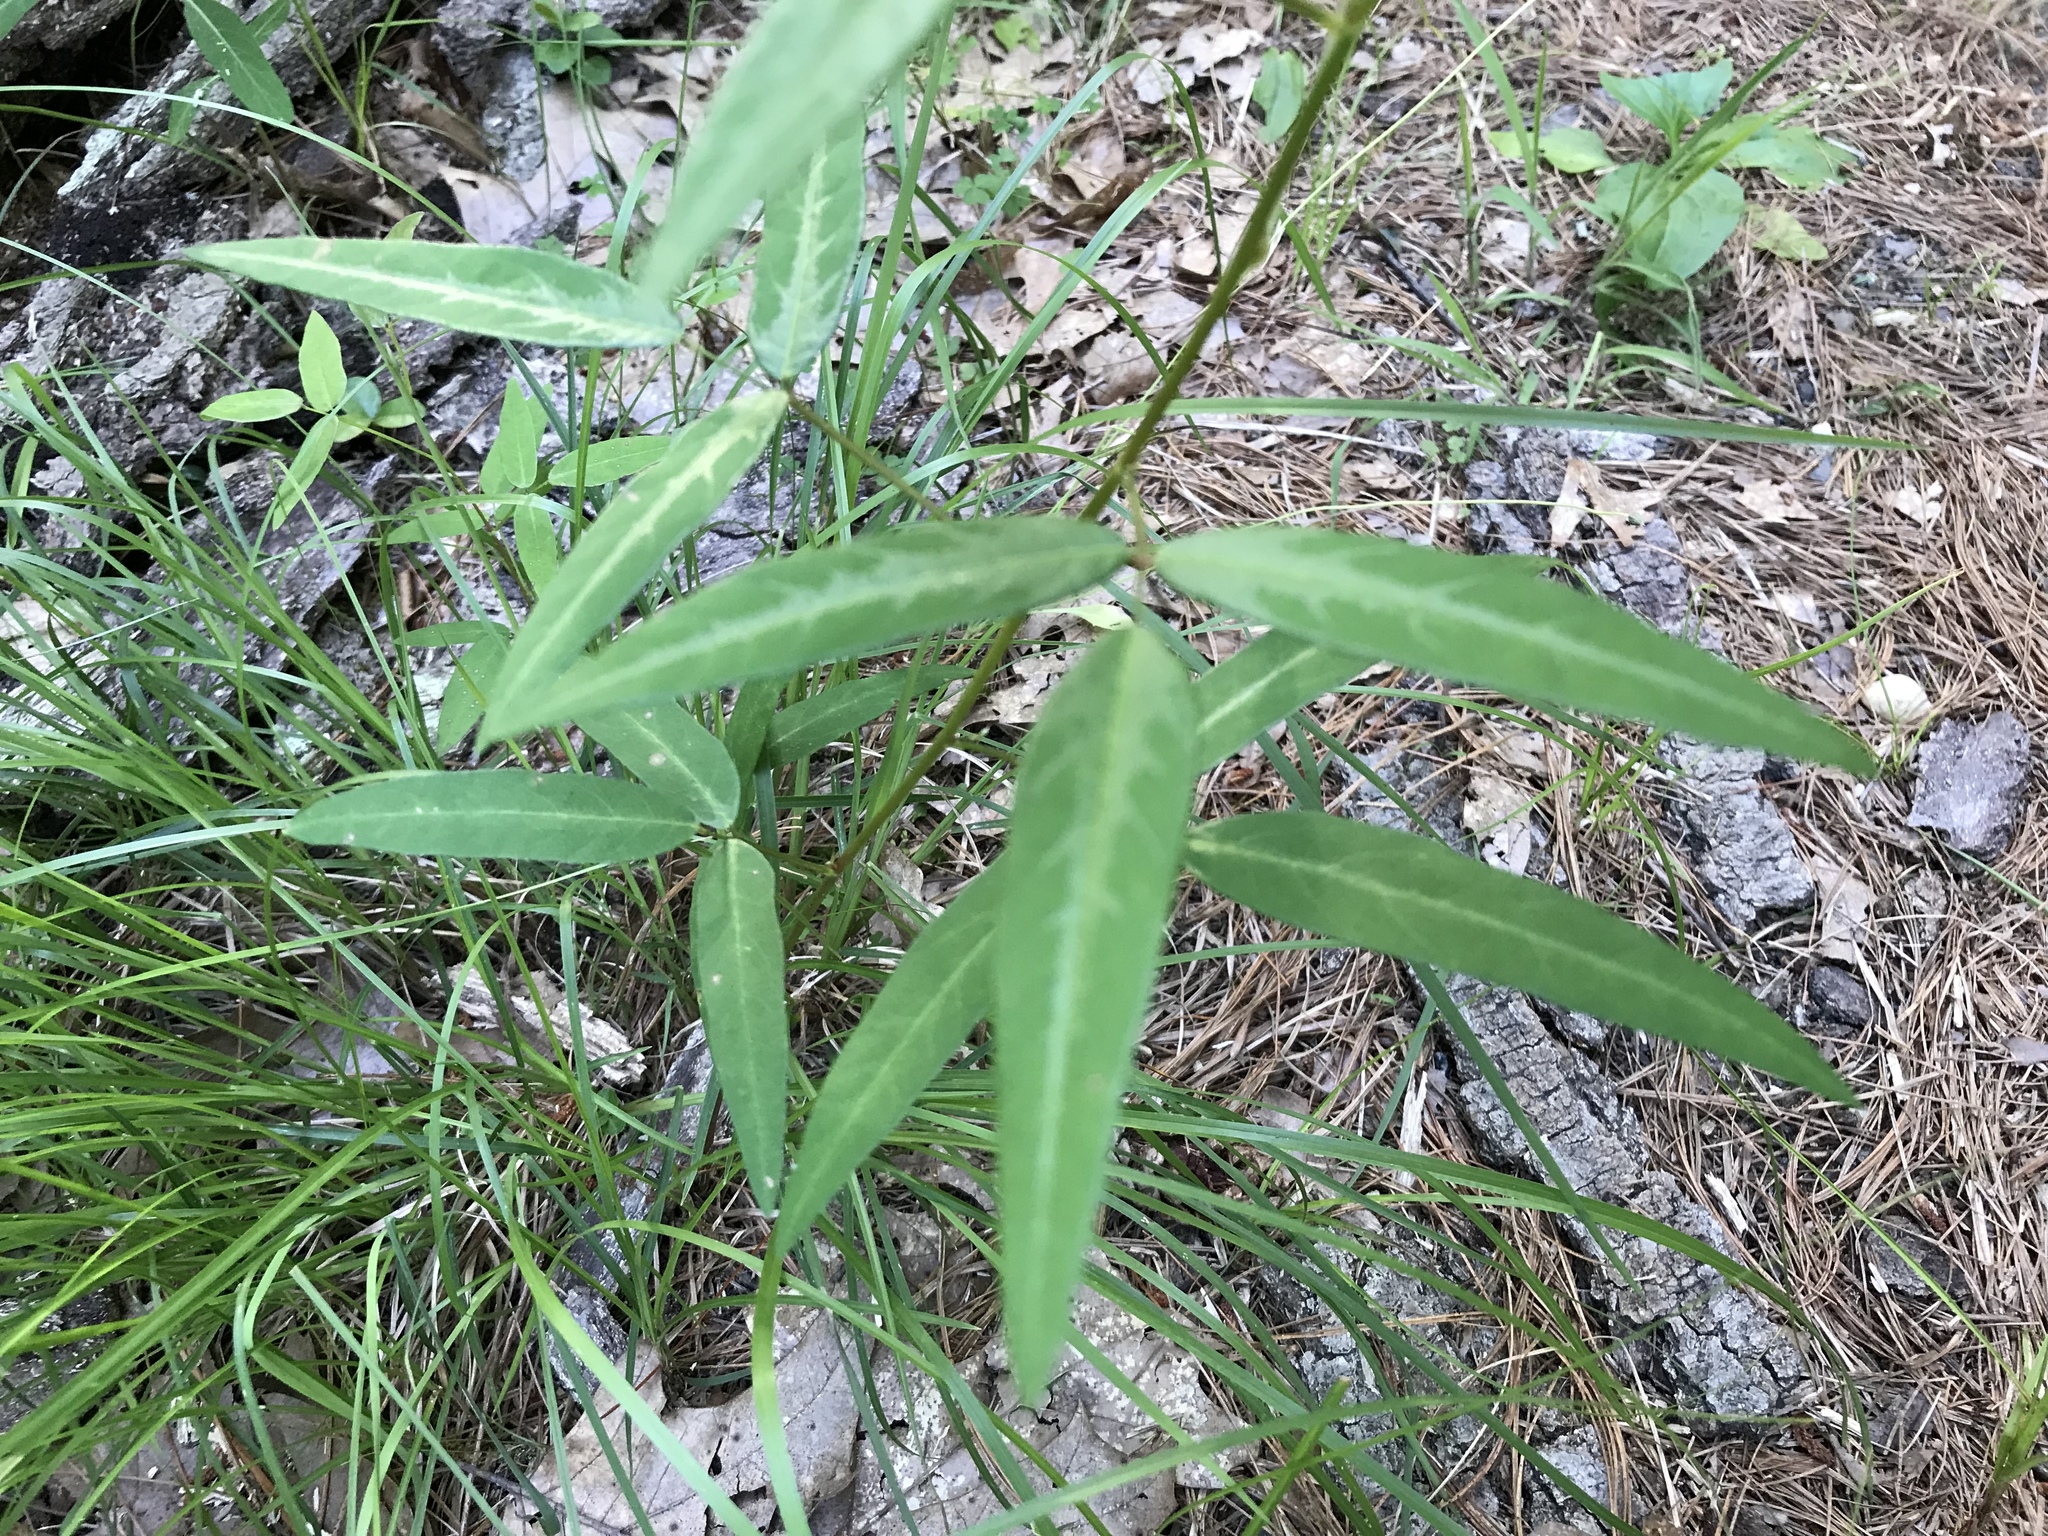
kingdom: Plantae
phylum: Tracheophyta
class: Magnoliopsida
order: Fabales
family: Fabaceae
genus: Desmodium
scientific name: Desmodium paniculatum
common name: Panicled tick-clover
